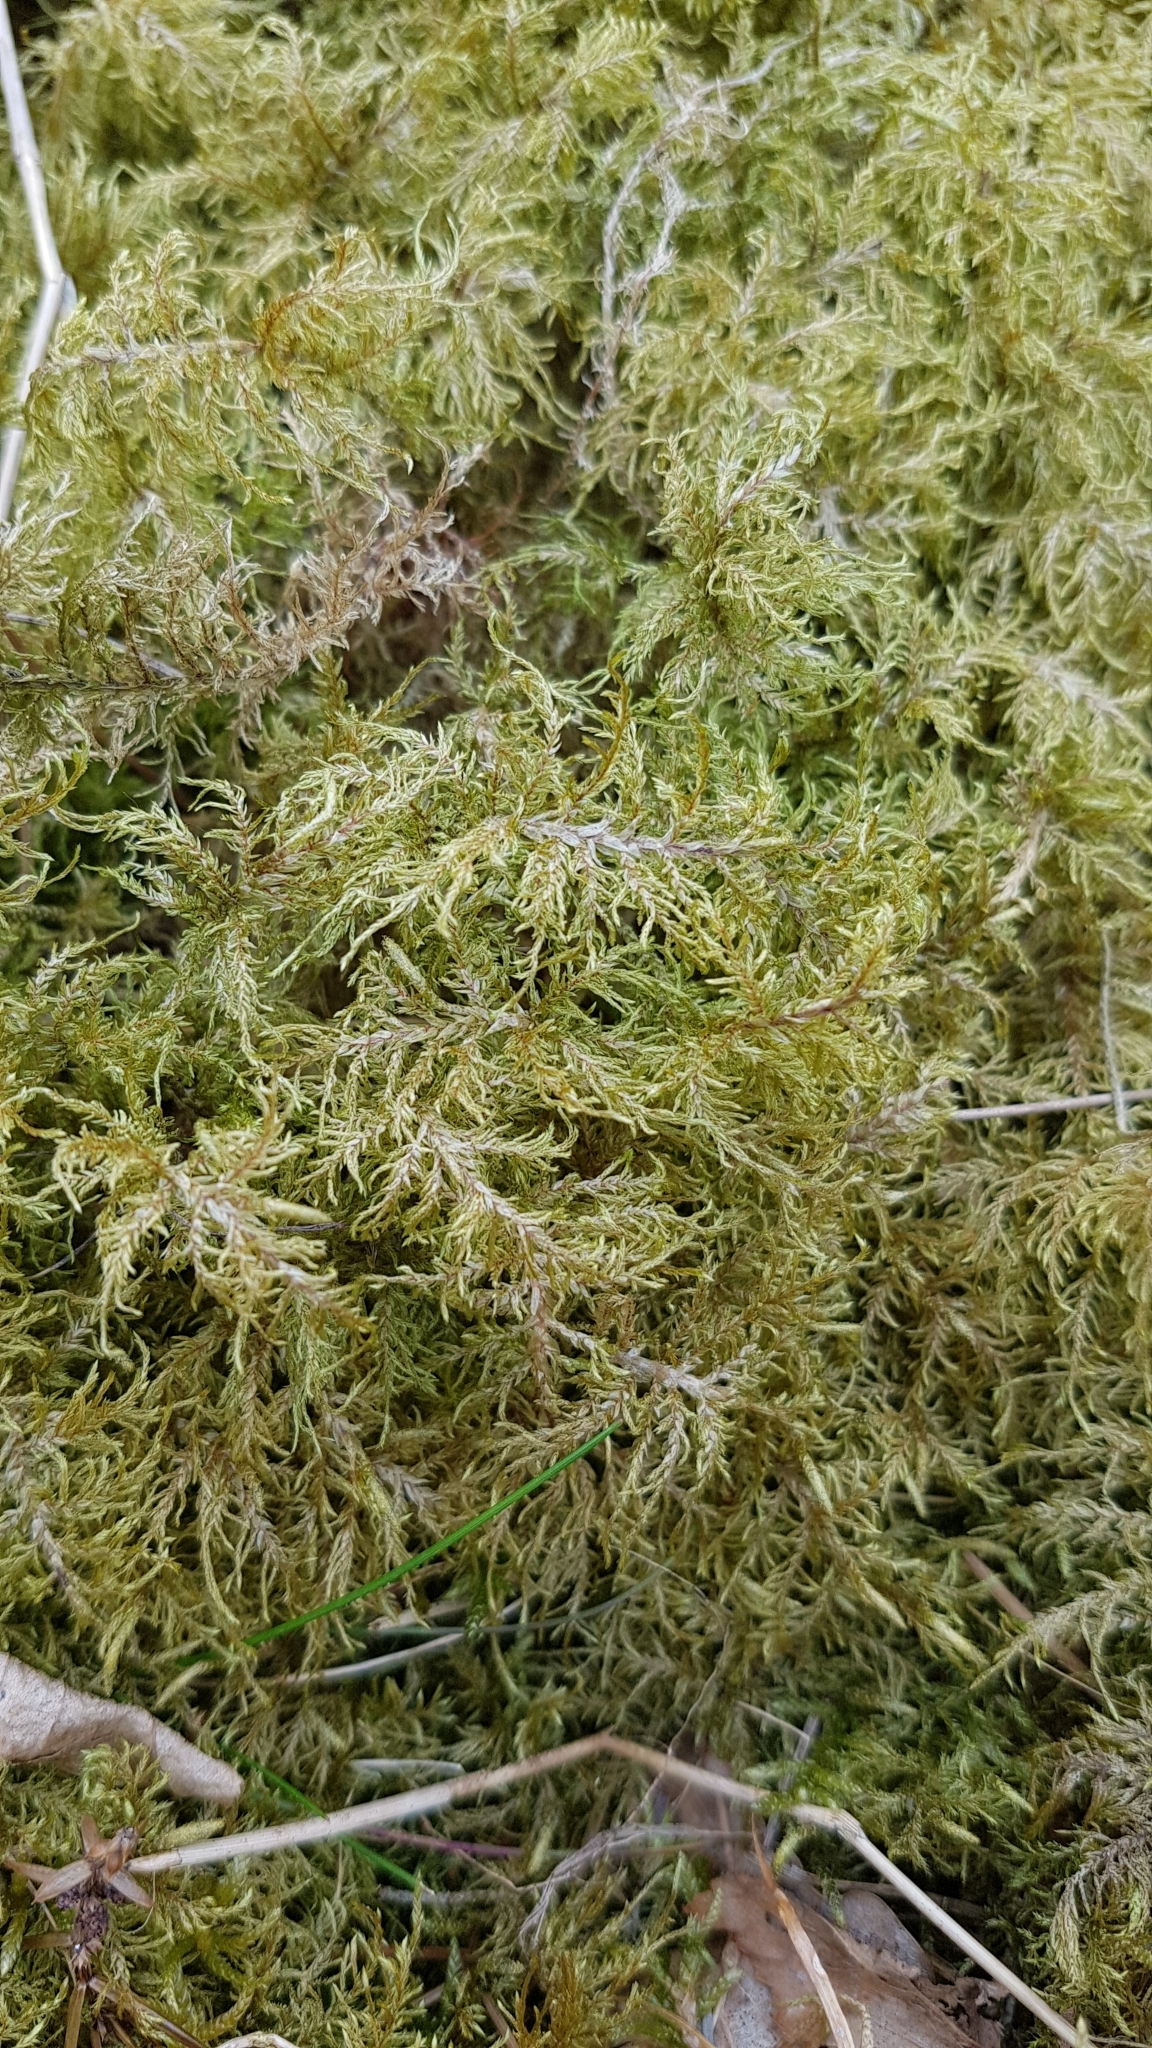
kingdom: Plantae
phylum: Bryophyta
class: Bryopsida
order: Hypnales
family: Hylocomiaceae
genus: Hylocomium
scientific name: Hylocomium splendens
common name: Stairstep moss
